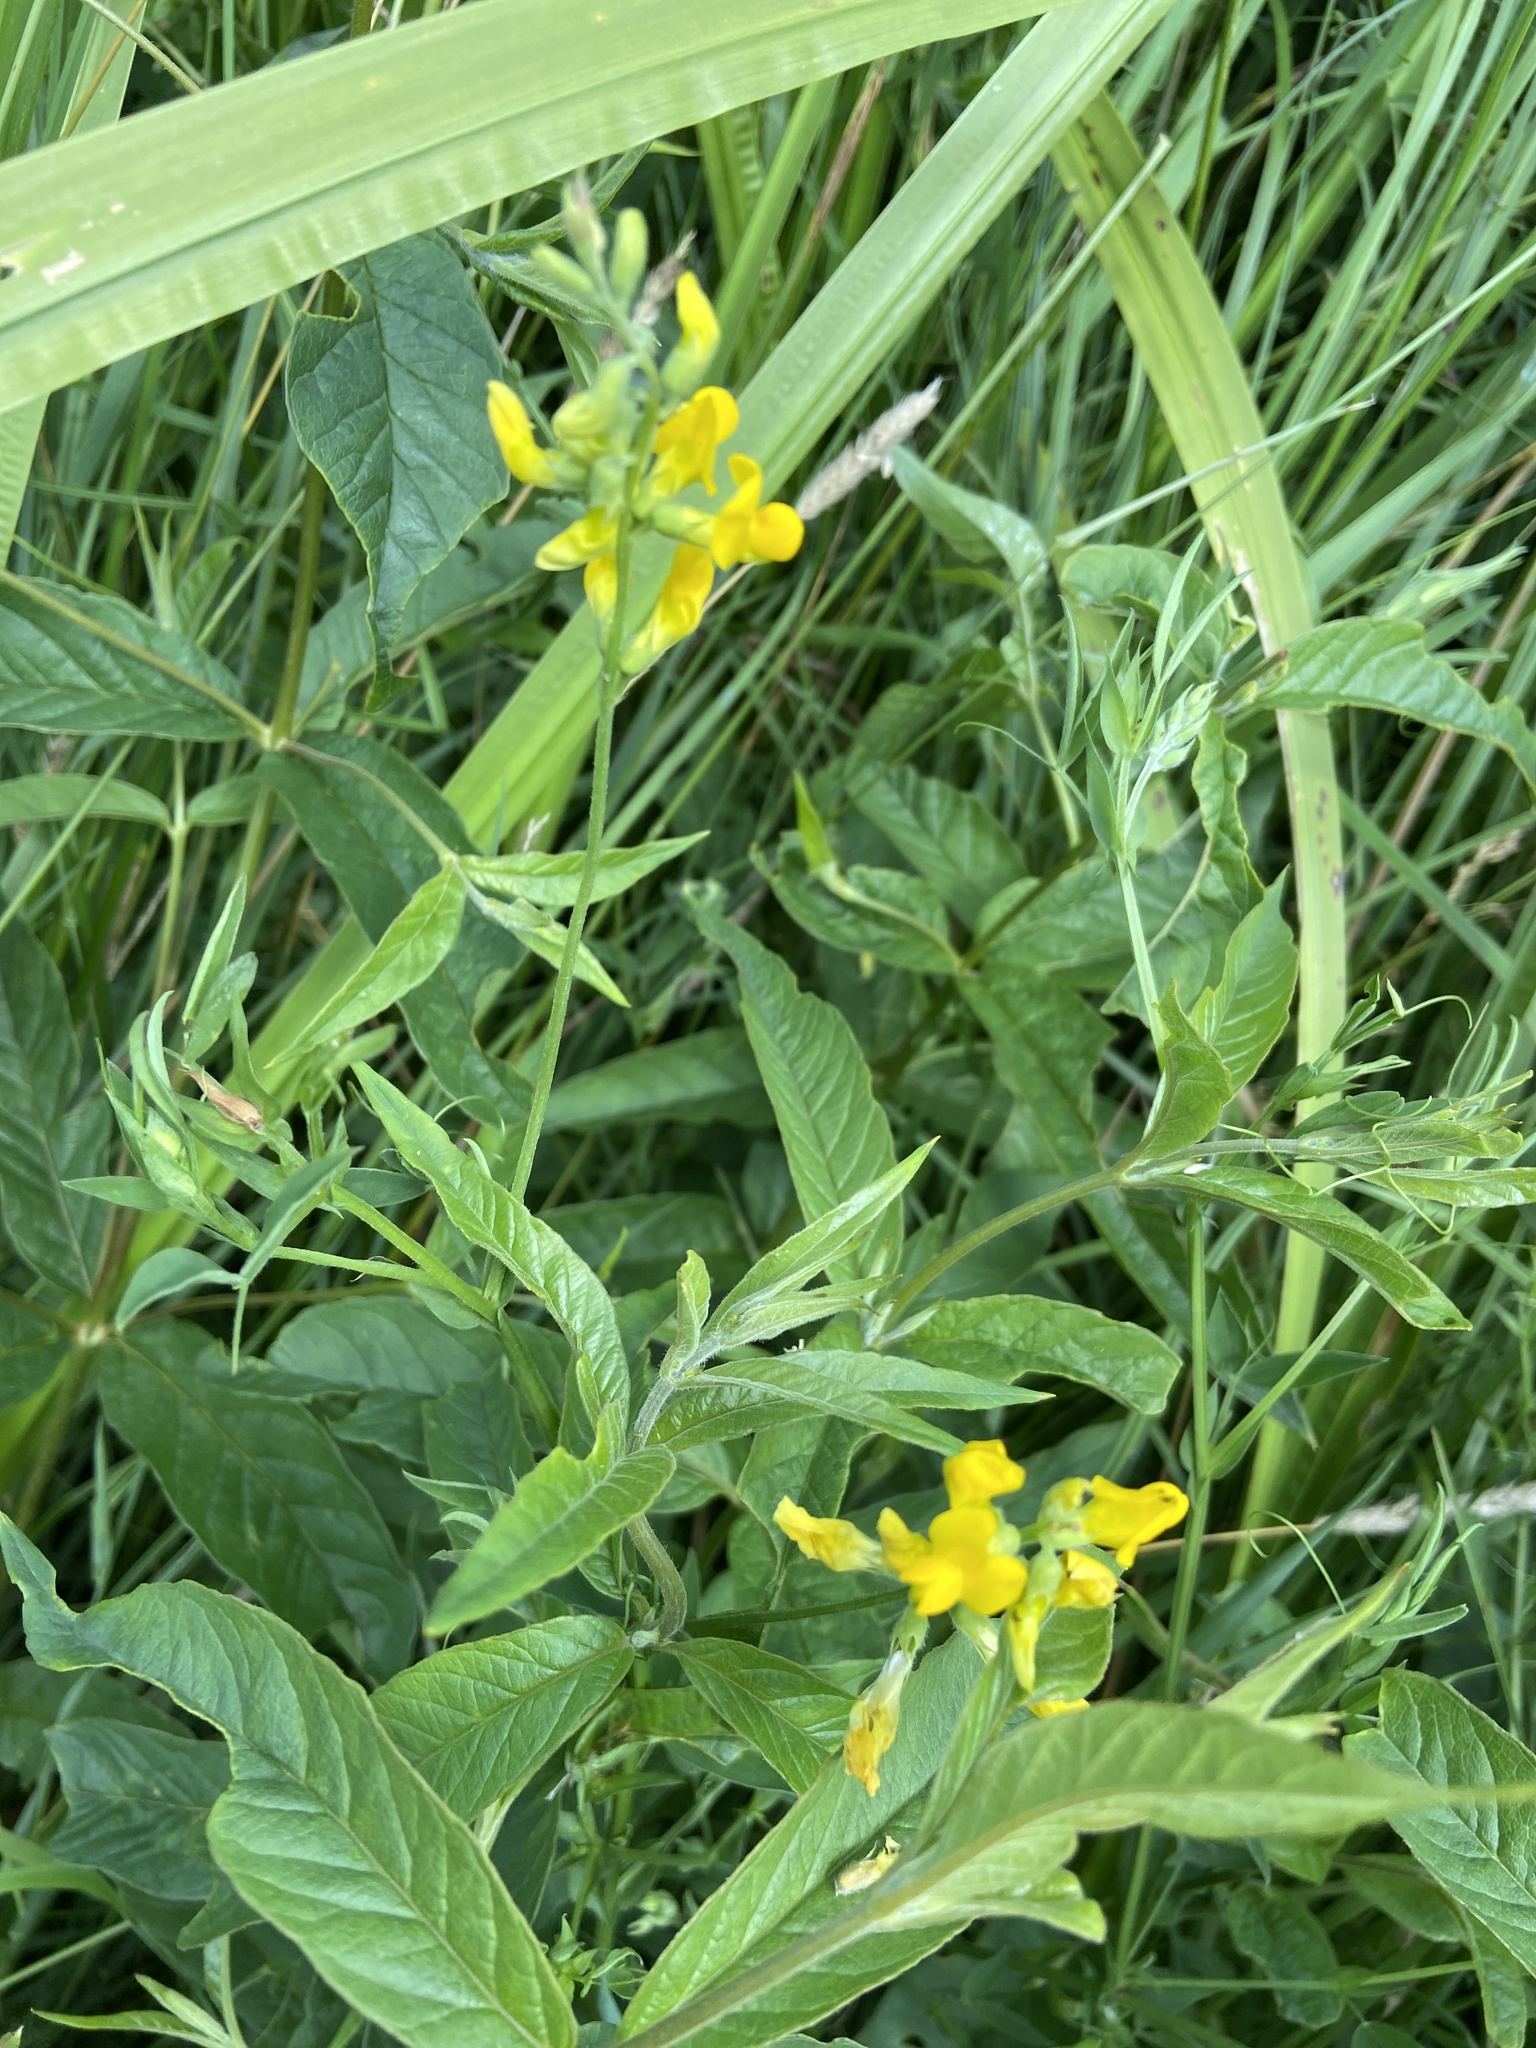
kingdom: Plantae
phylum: Tracheophyta
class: Magnoliopsida
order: Fabales
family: Fabaceae
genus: Lathyrus
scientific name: Lathyrus pratensis
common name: Meadow vetchling
